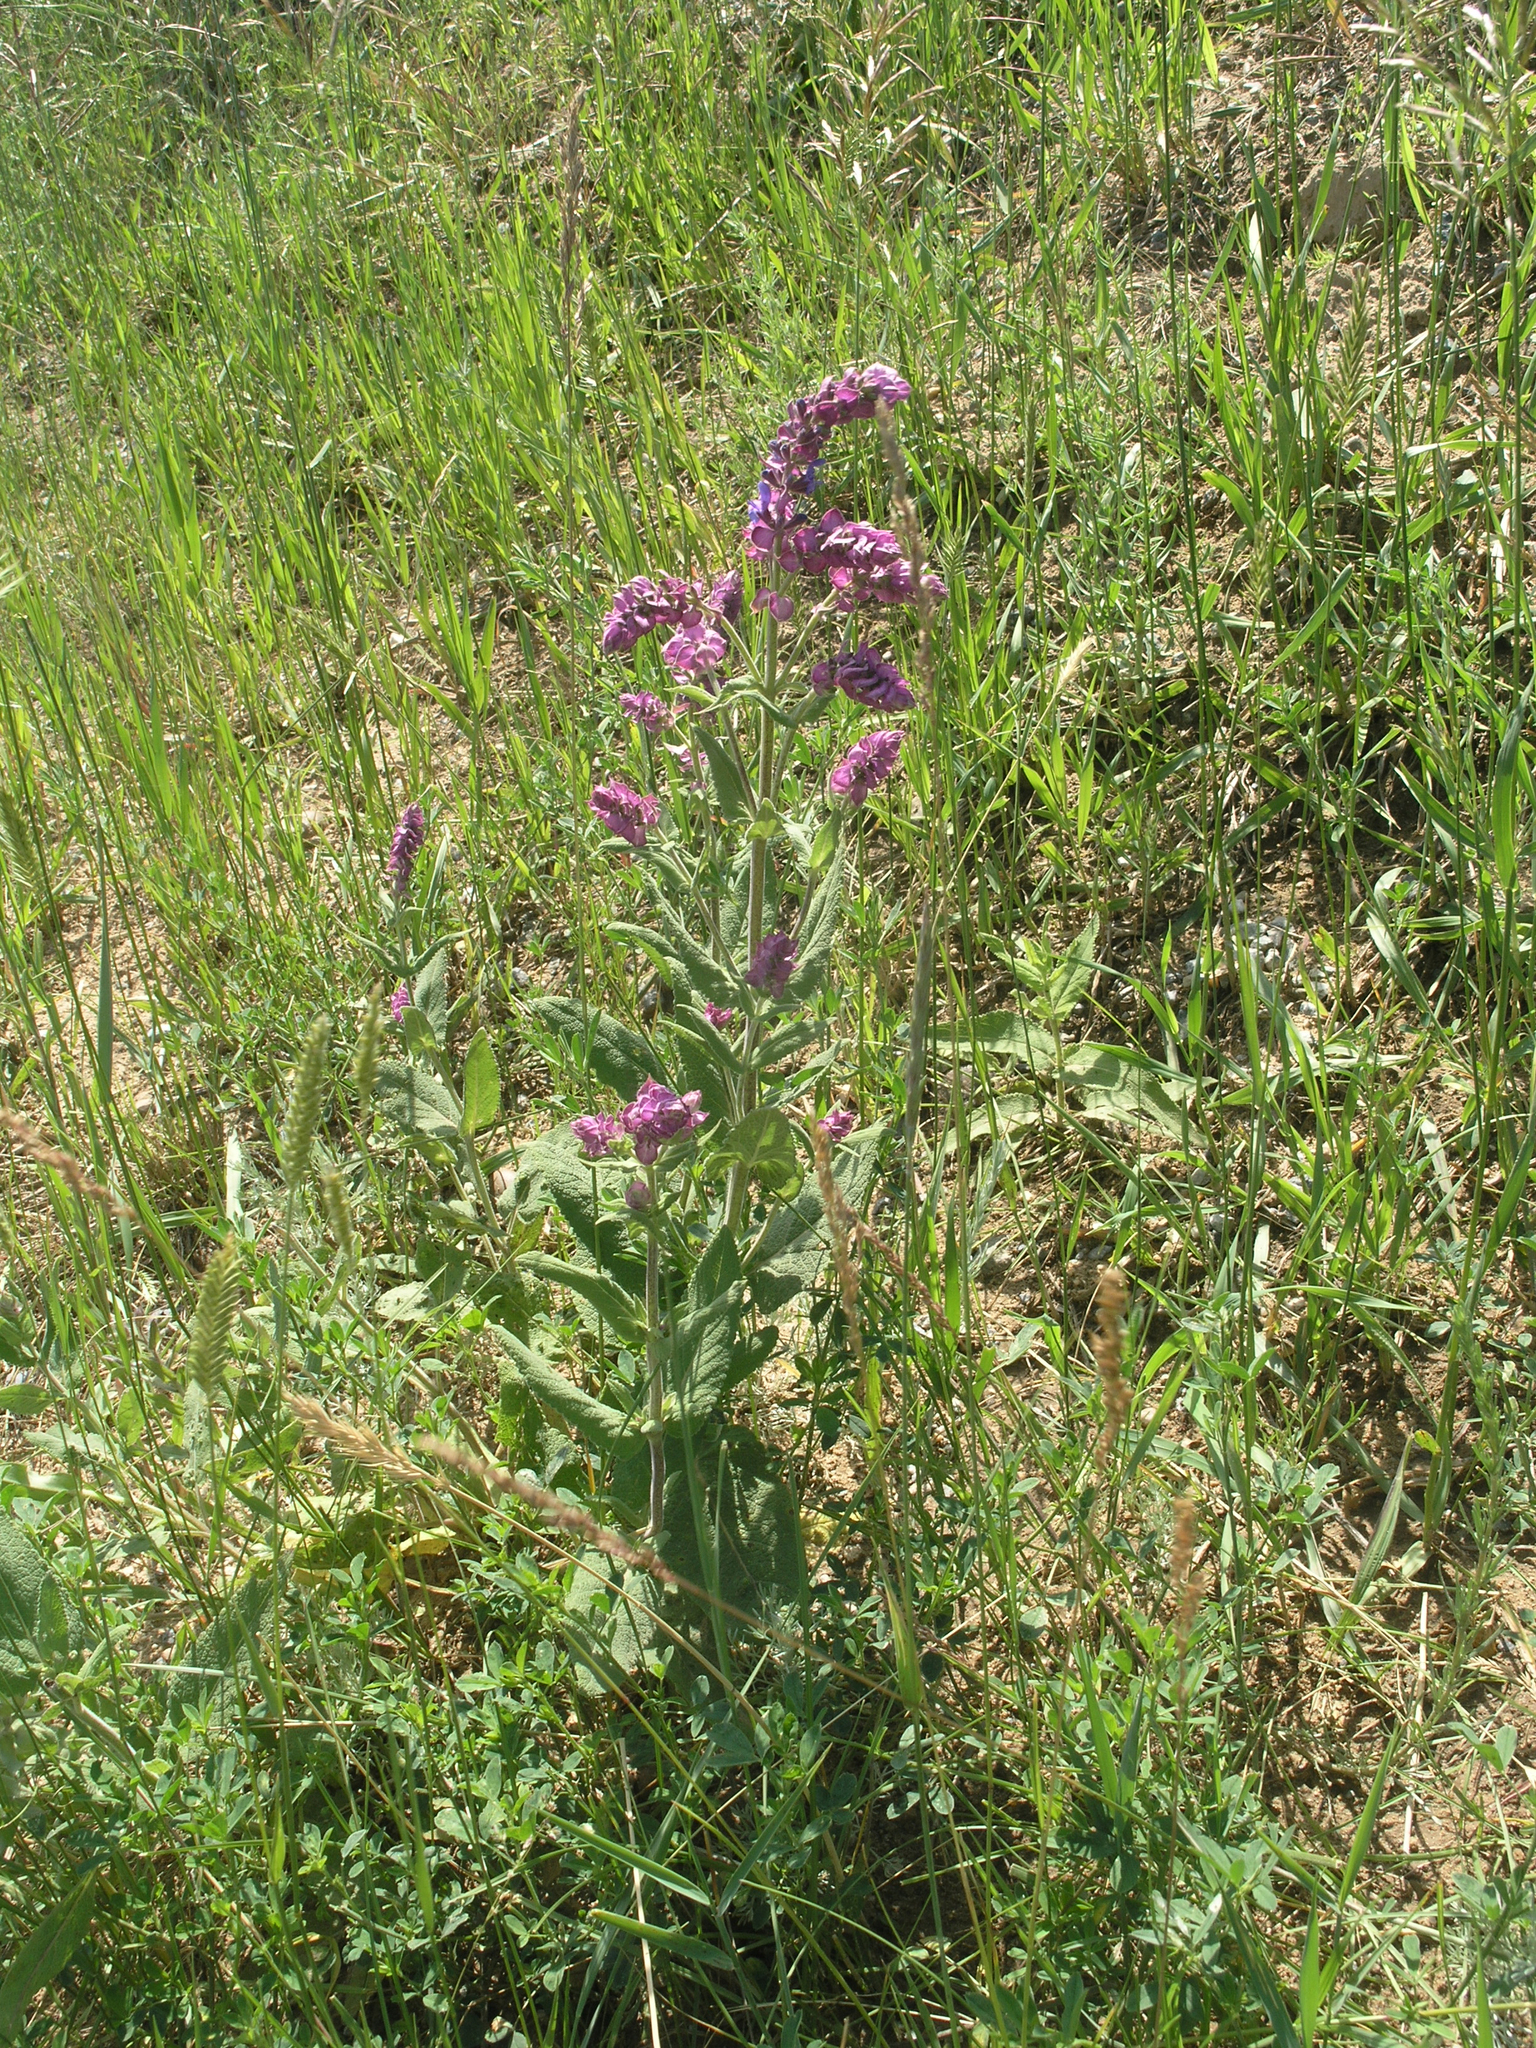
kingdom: Plantae
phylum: Tracheophyta
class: Magnoliopsida
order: Lamiales
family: Lamiaceae
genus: Salvia
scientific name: Salvia nemorosa
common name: Balkan clary
